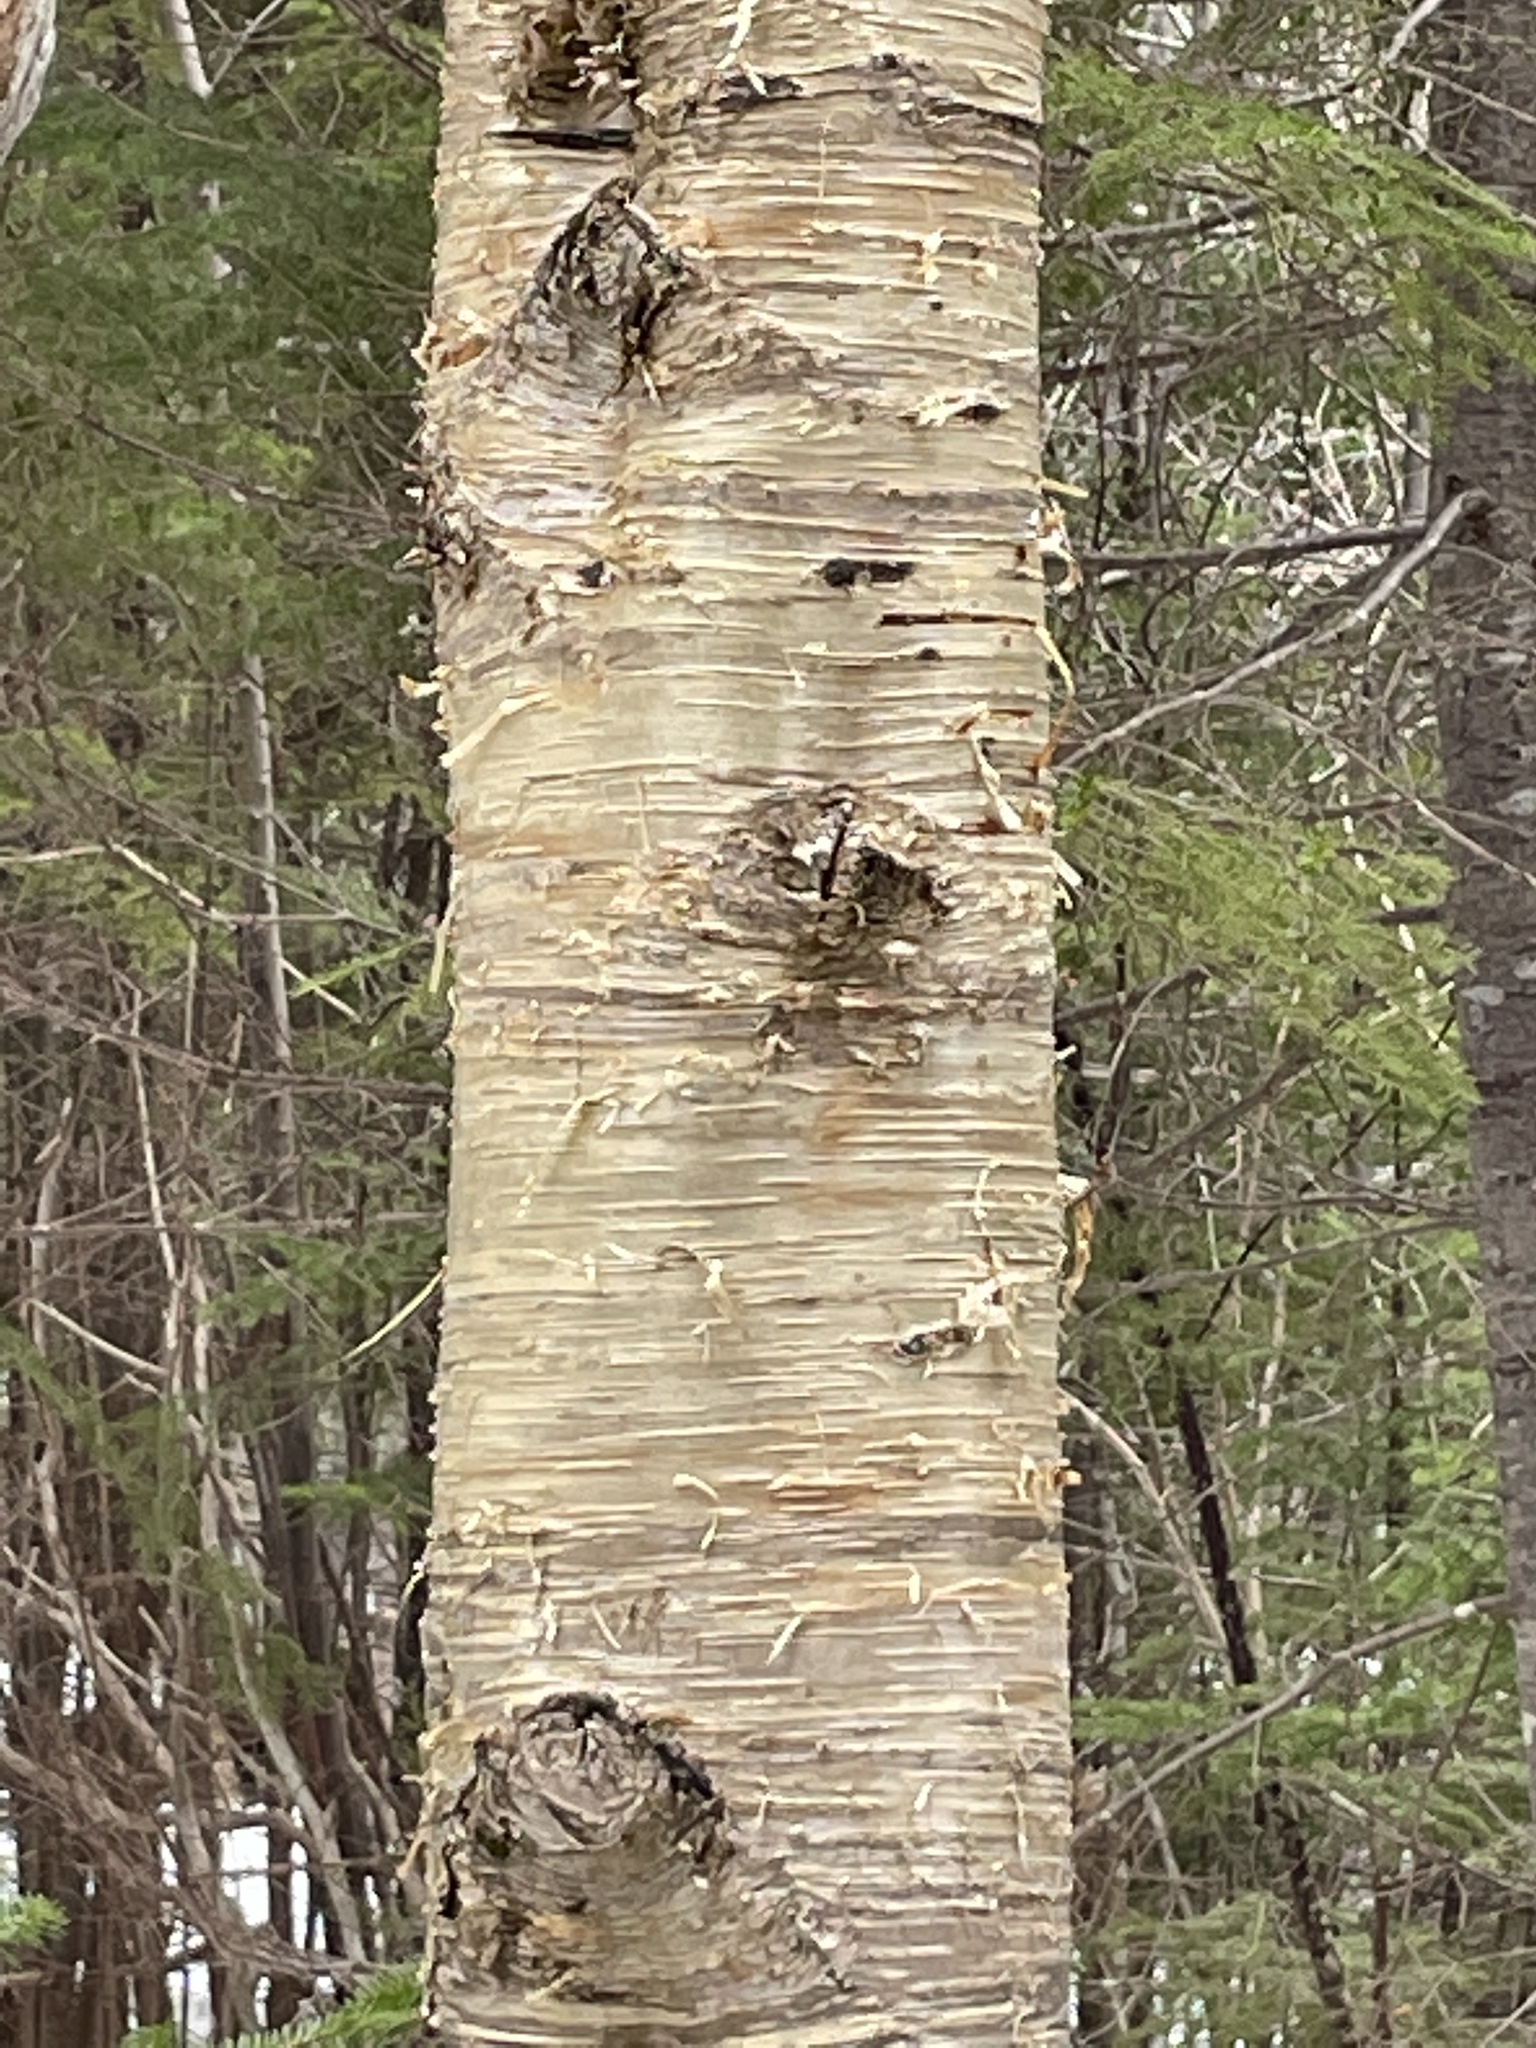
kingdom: Plantae
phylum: Tracheophyta
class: Magnoliopsida
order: Fagales
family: Betulaceae
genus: Betula
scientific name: Betula alleghaniensis
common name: Yellow birch
